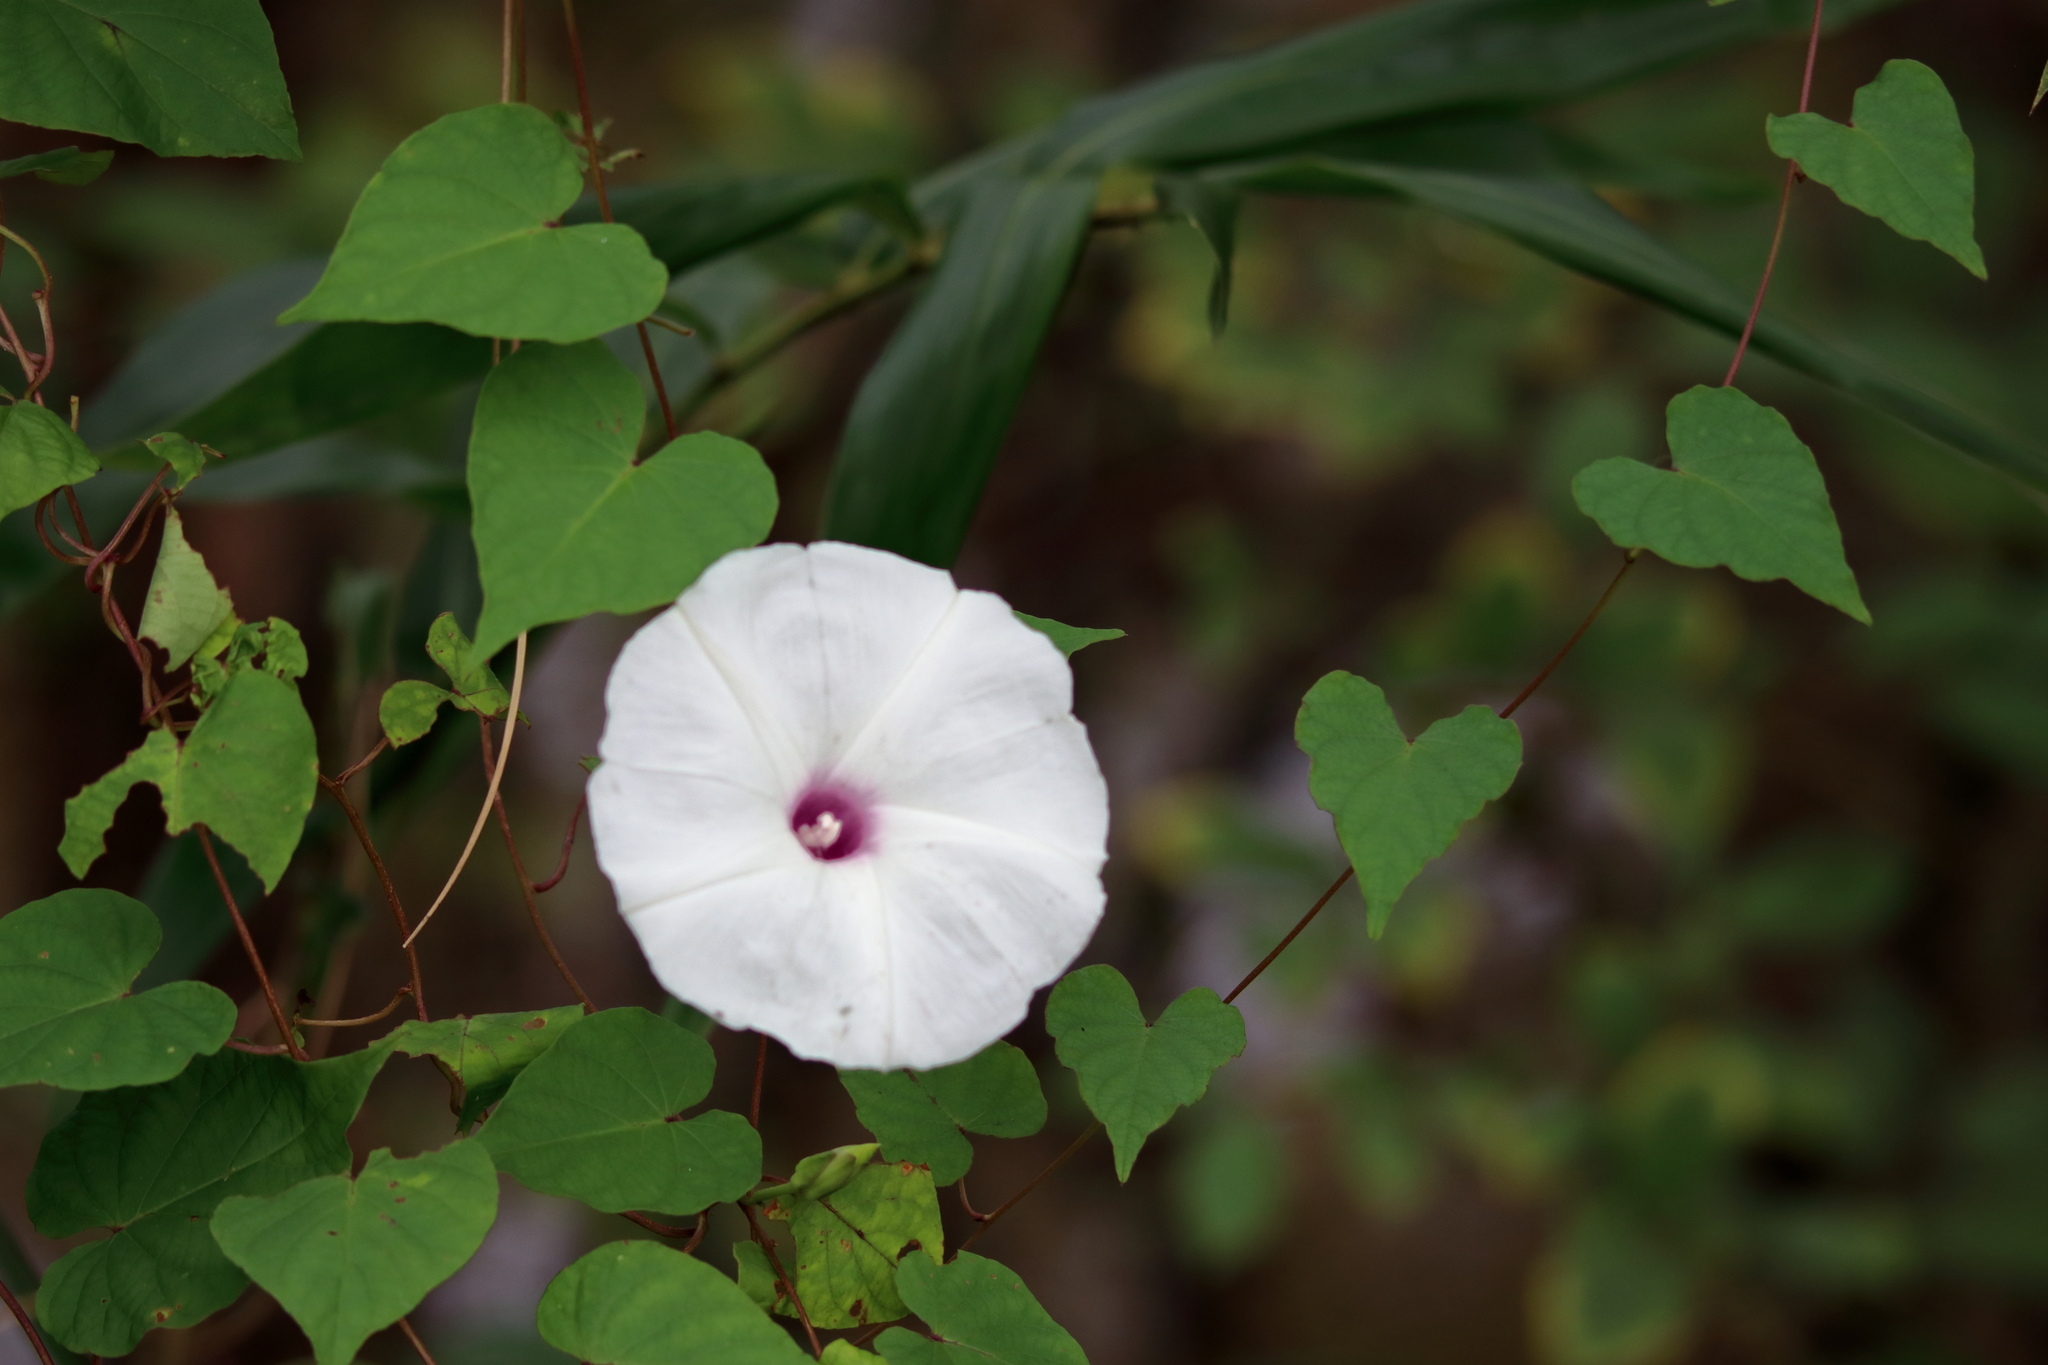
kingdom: Plantae
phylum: Tracheophyta
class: Magnoliopsida
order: Solanales
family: Convolvulaceae
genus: Ipomoea
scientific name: Ipomoea pandurata
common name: Man-of-the-earth
